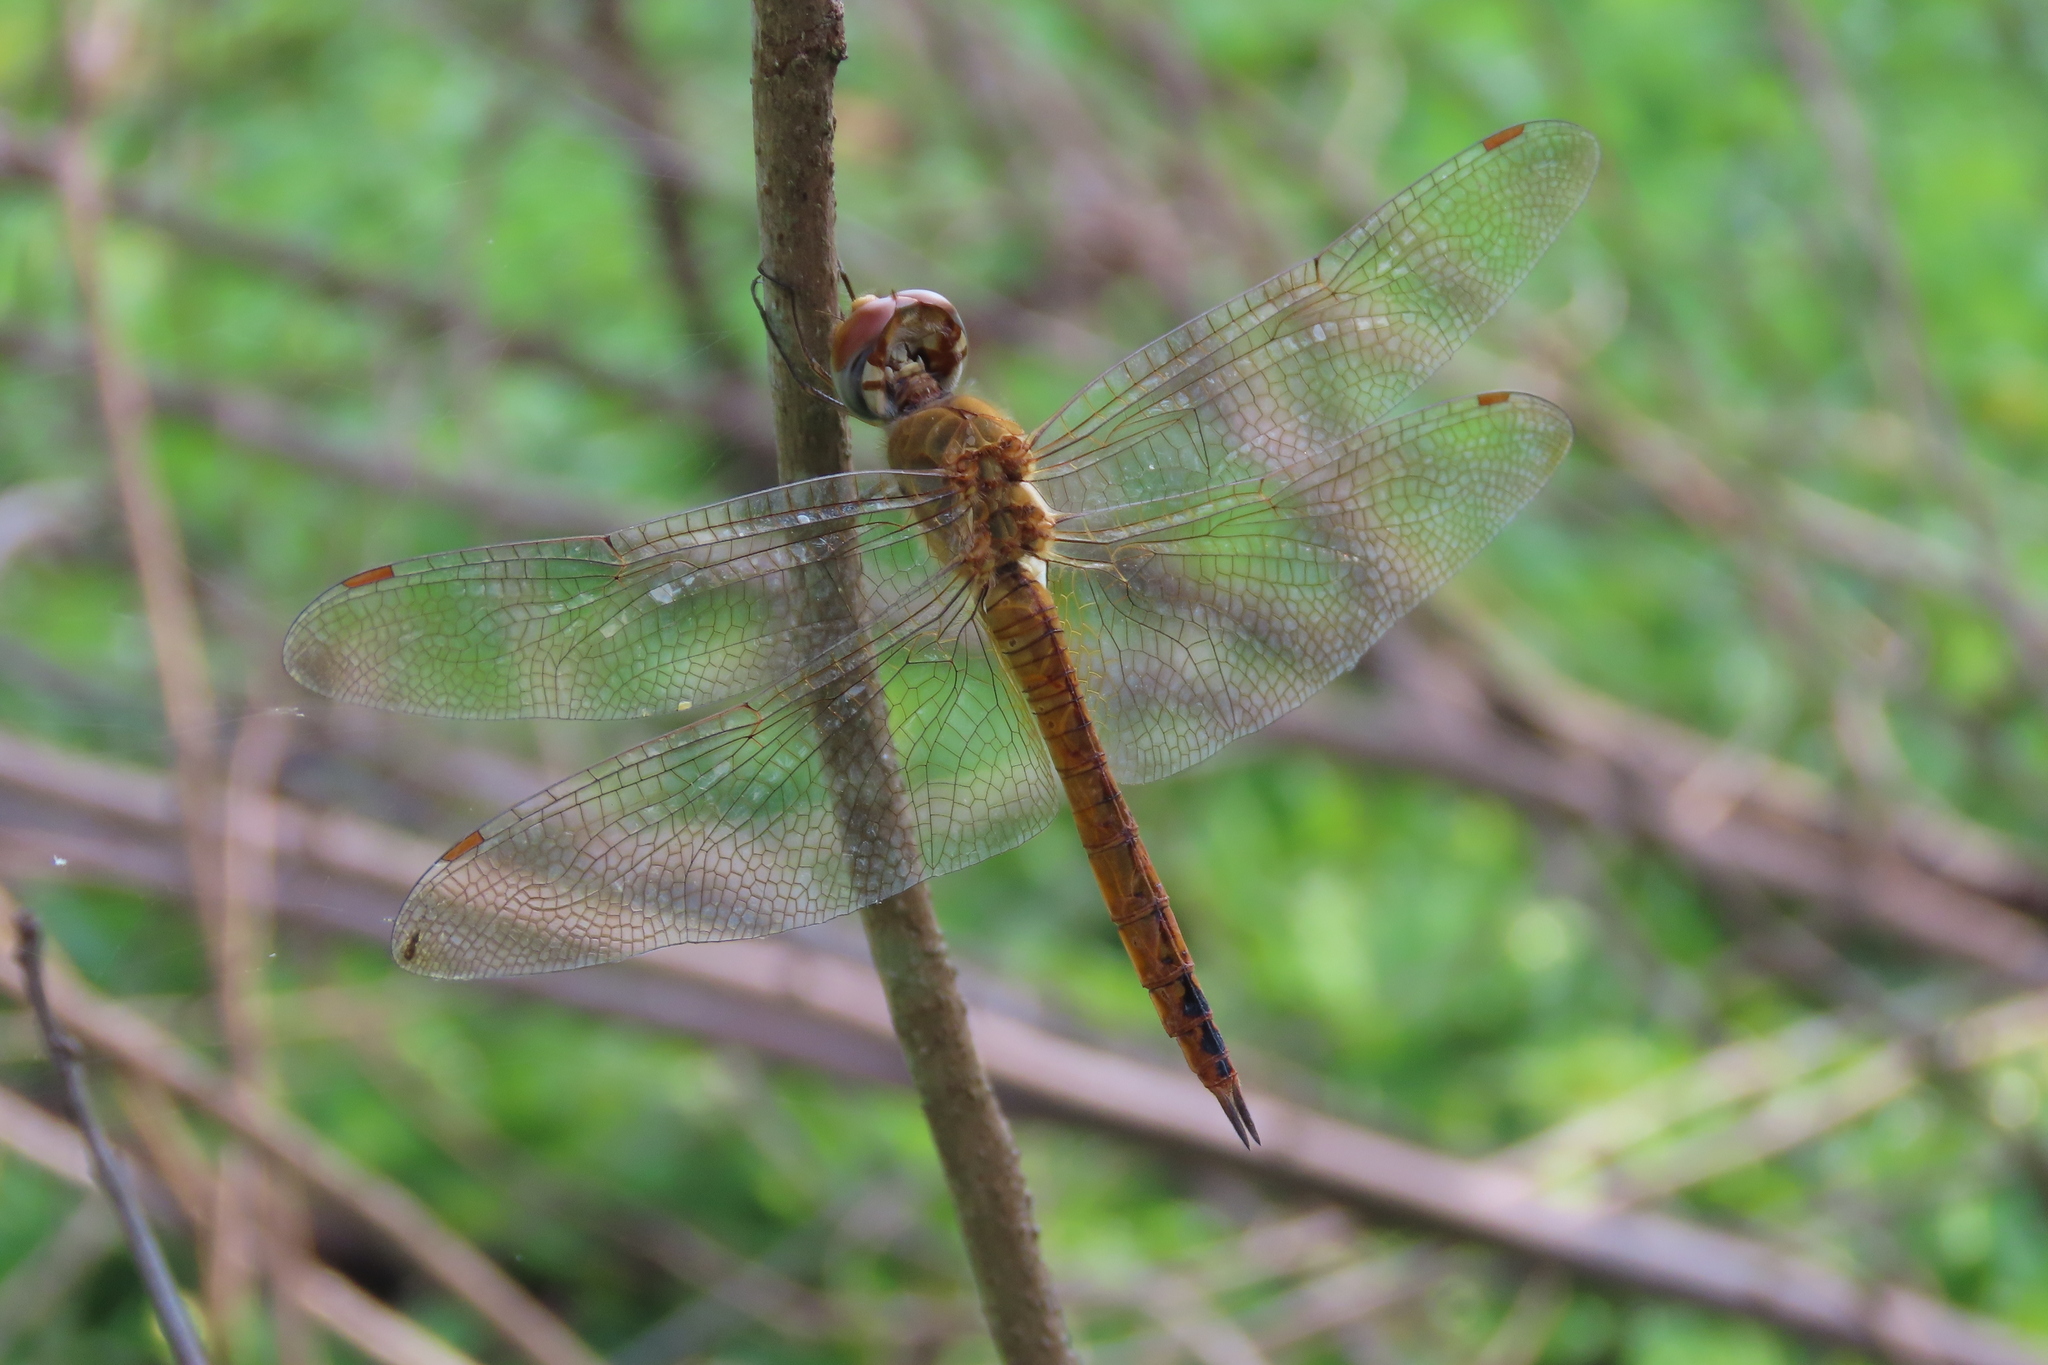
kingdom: Animalia
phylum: Arthropoda
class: Insecta
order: Odonata
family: Libellulidae
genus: Pantala
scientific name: Pantala flavescens
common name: Wandering glider
